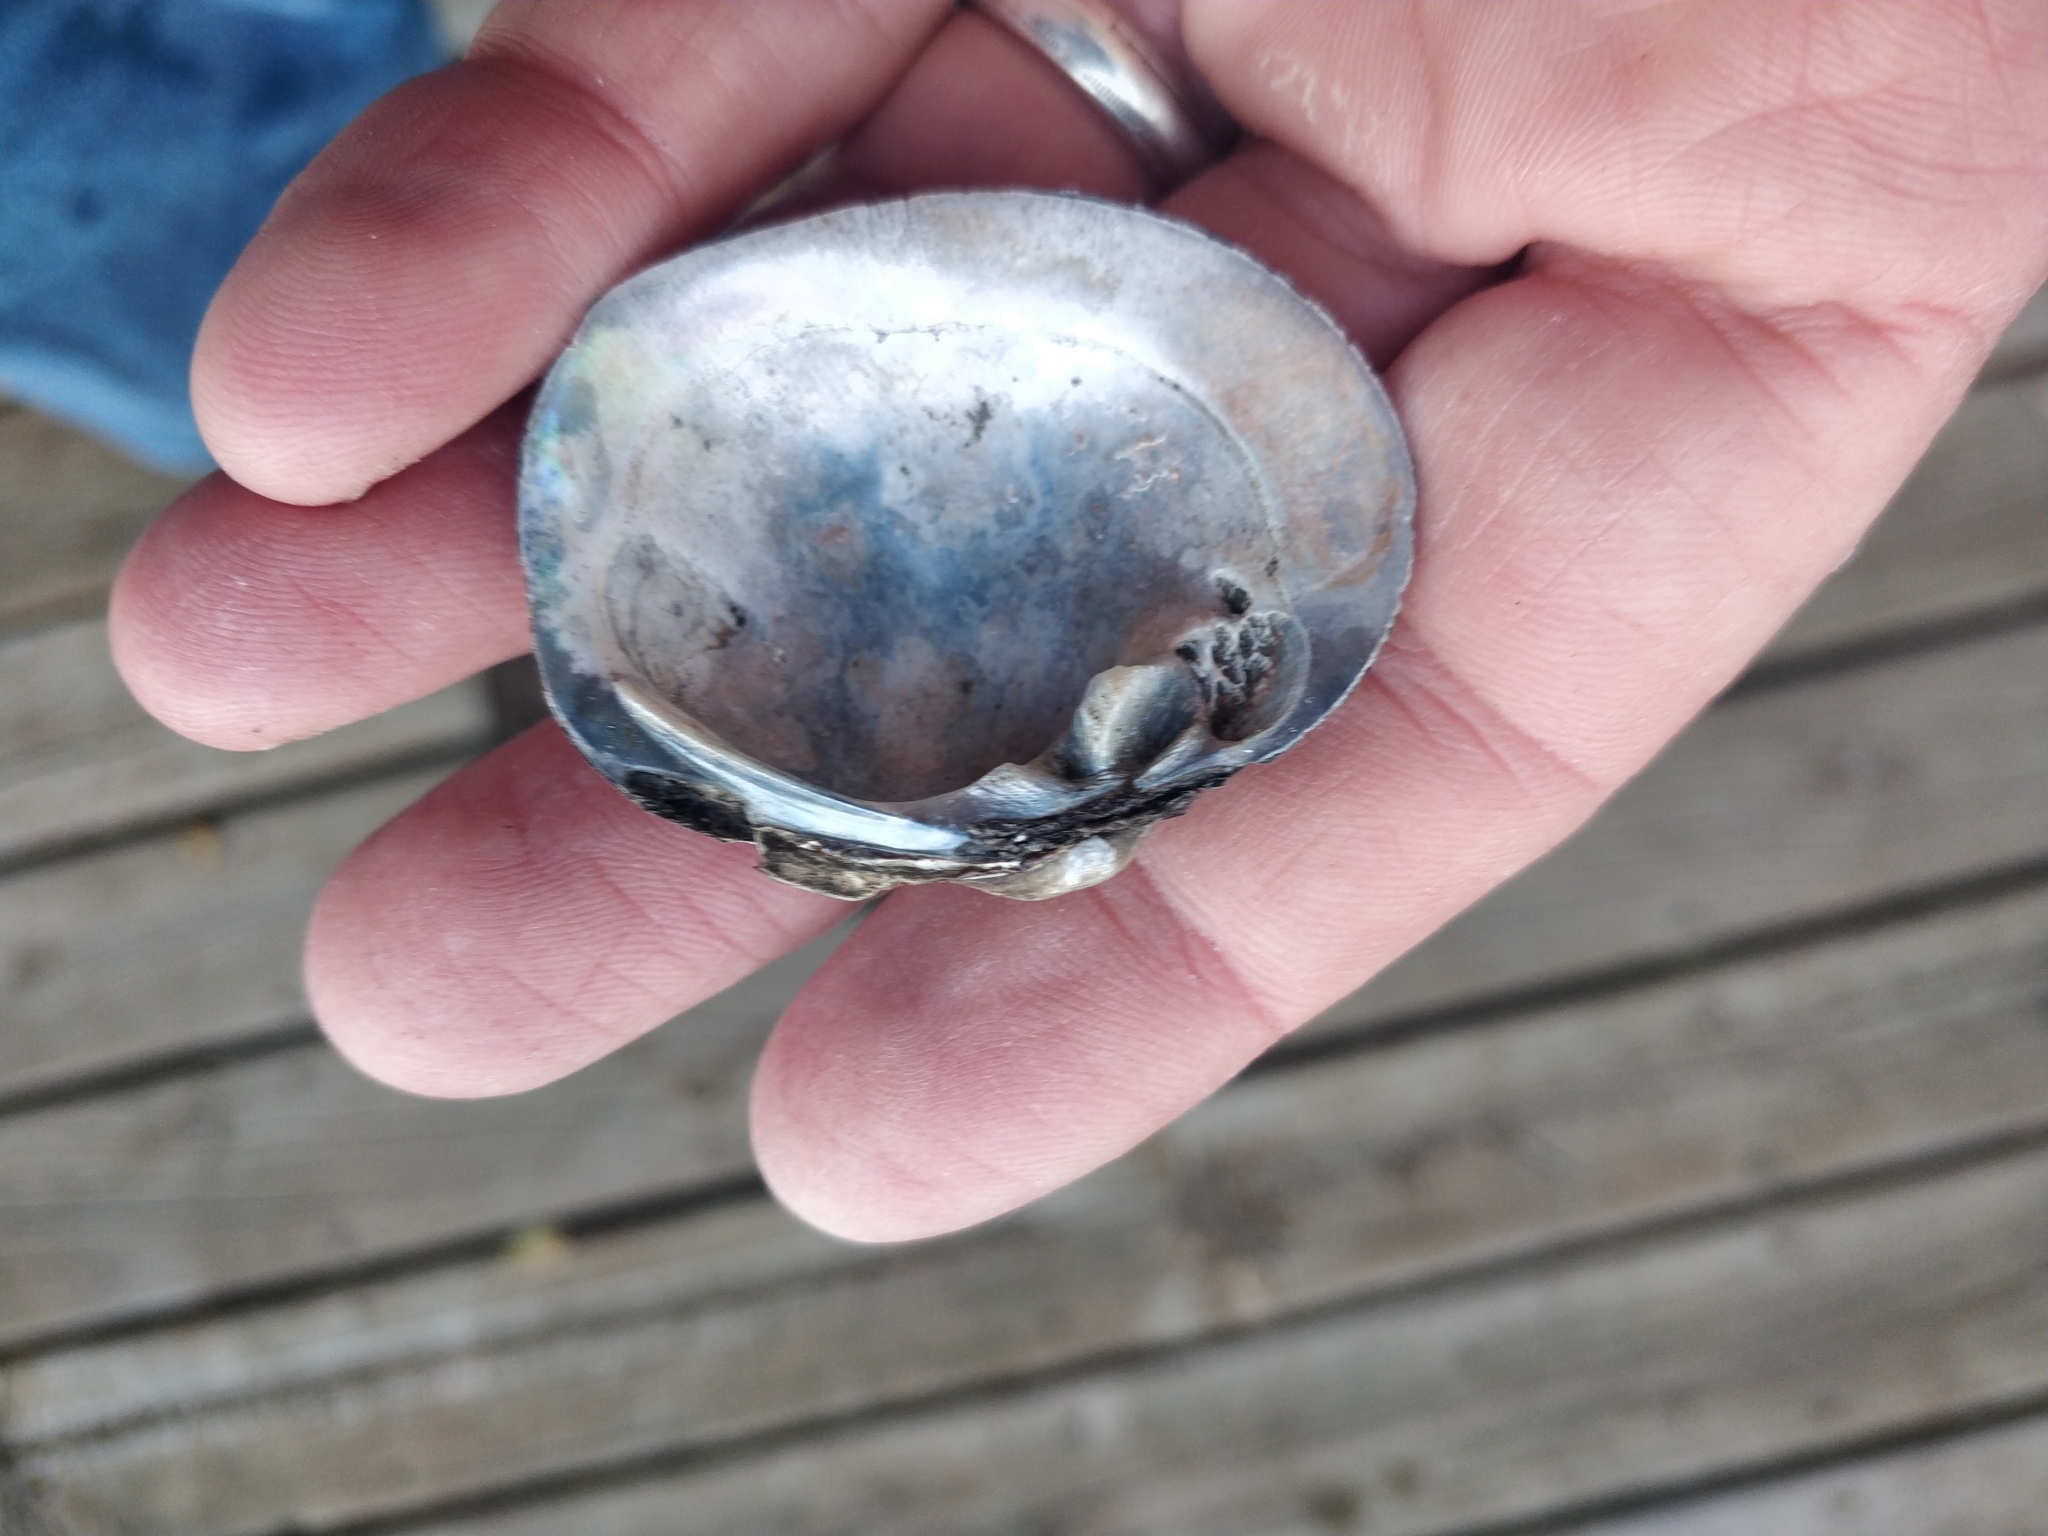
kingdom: Animalia
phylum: Mollusca
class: Bivalvia
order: Unionida
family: Unionidae
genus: Cyclonaias
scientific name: Cyclonaias pustulosa
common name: Pimpleback
